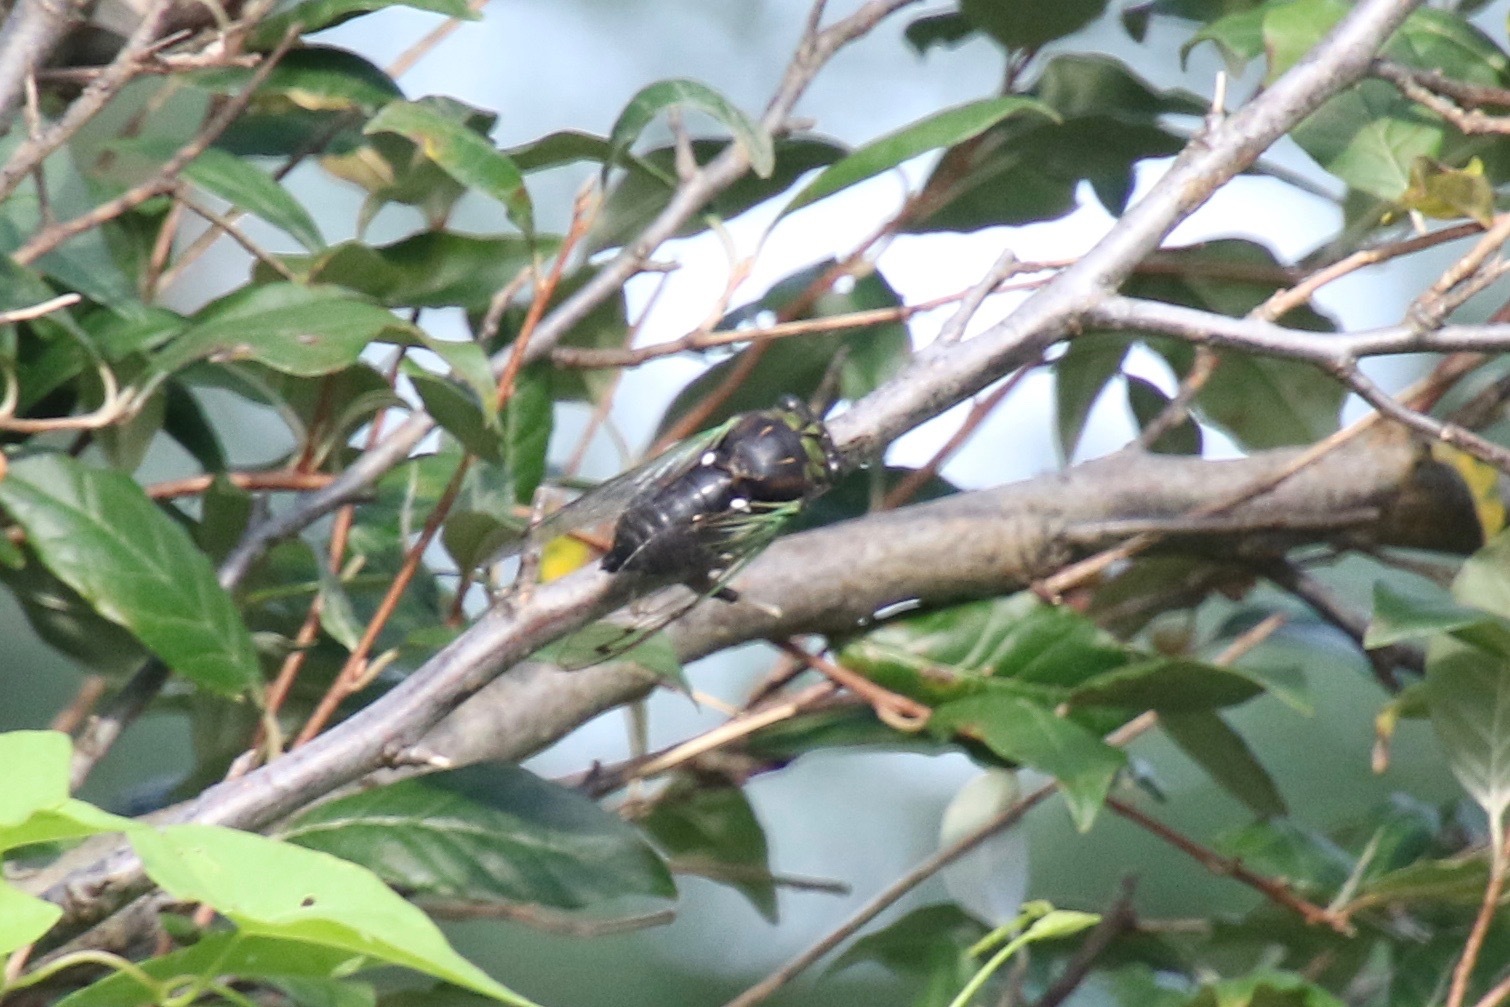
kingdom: Animalia
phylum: Arthropoda
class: Insecta
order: Hemiptera
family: Cicadidae
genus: Neotibicen
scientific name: Neotibicen tibicen
